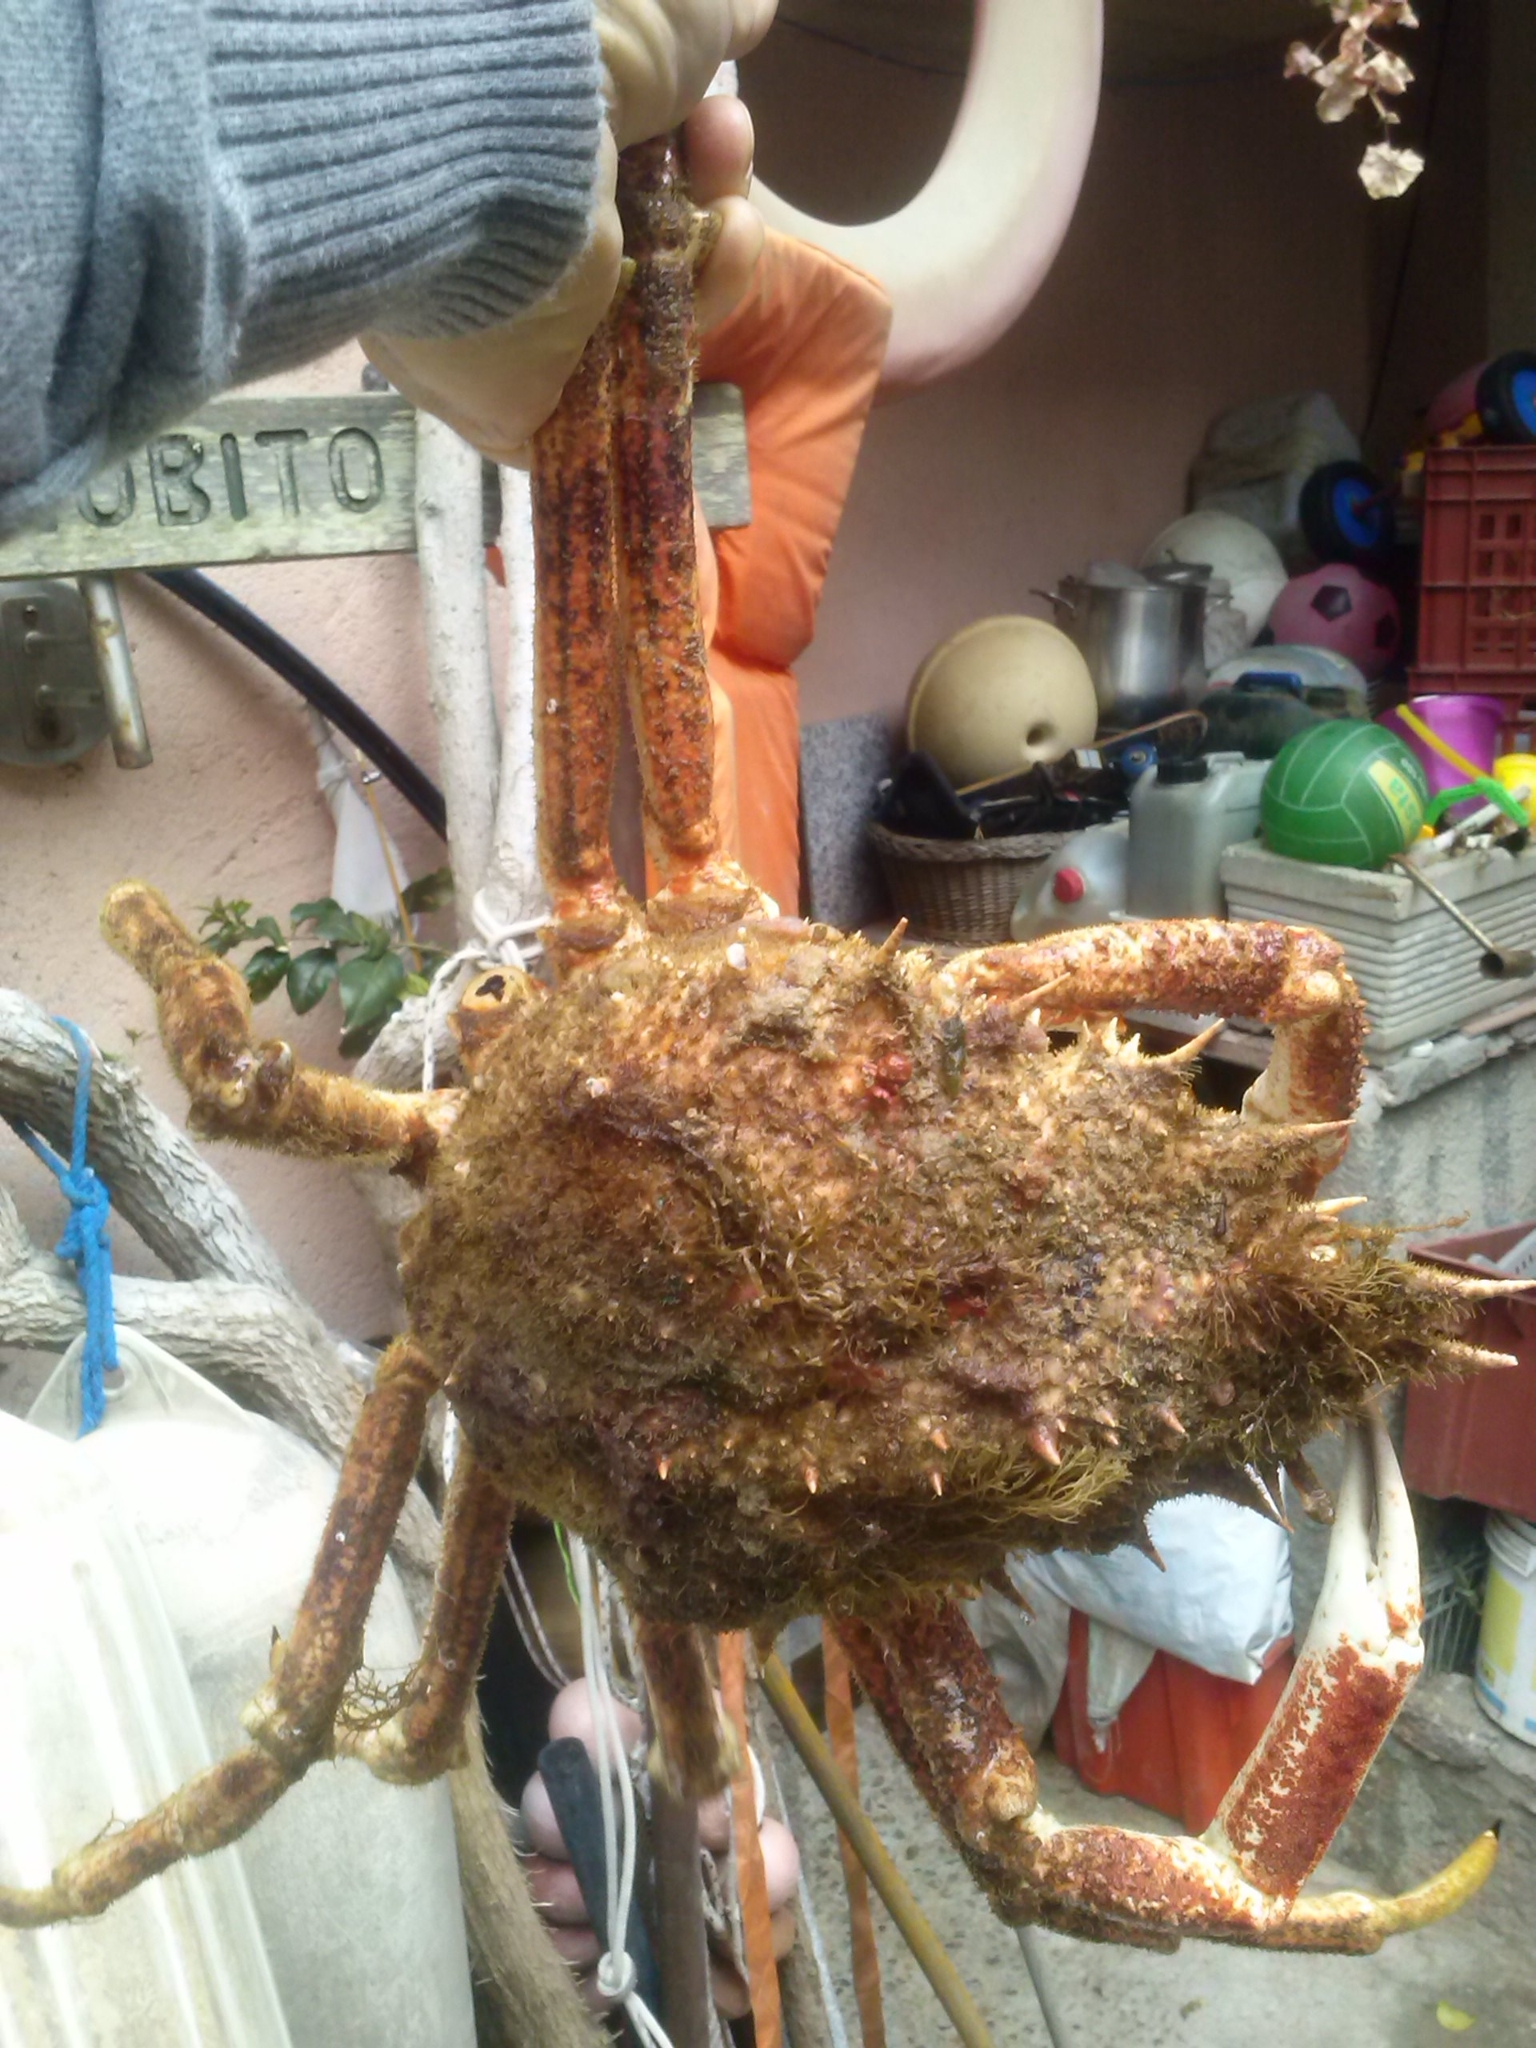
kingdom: Animalia
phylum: Arthropoda
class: Malacostraca
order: Decapoda
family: Majidae
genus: Maja
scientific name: Maja squinado
